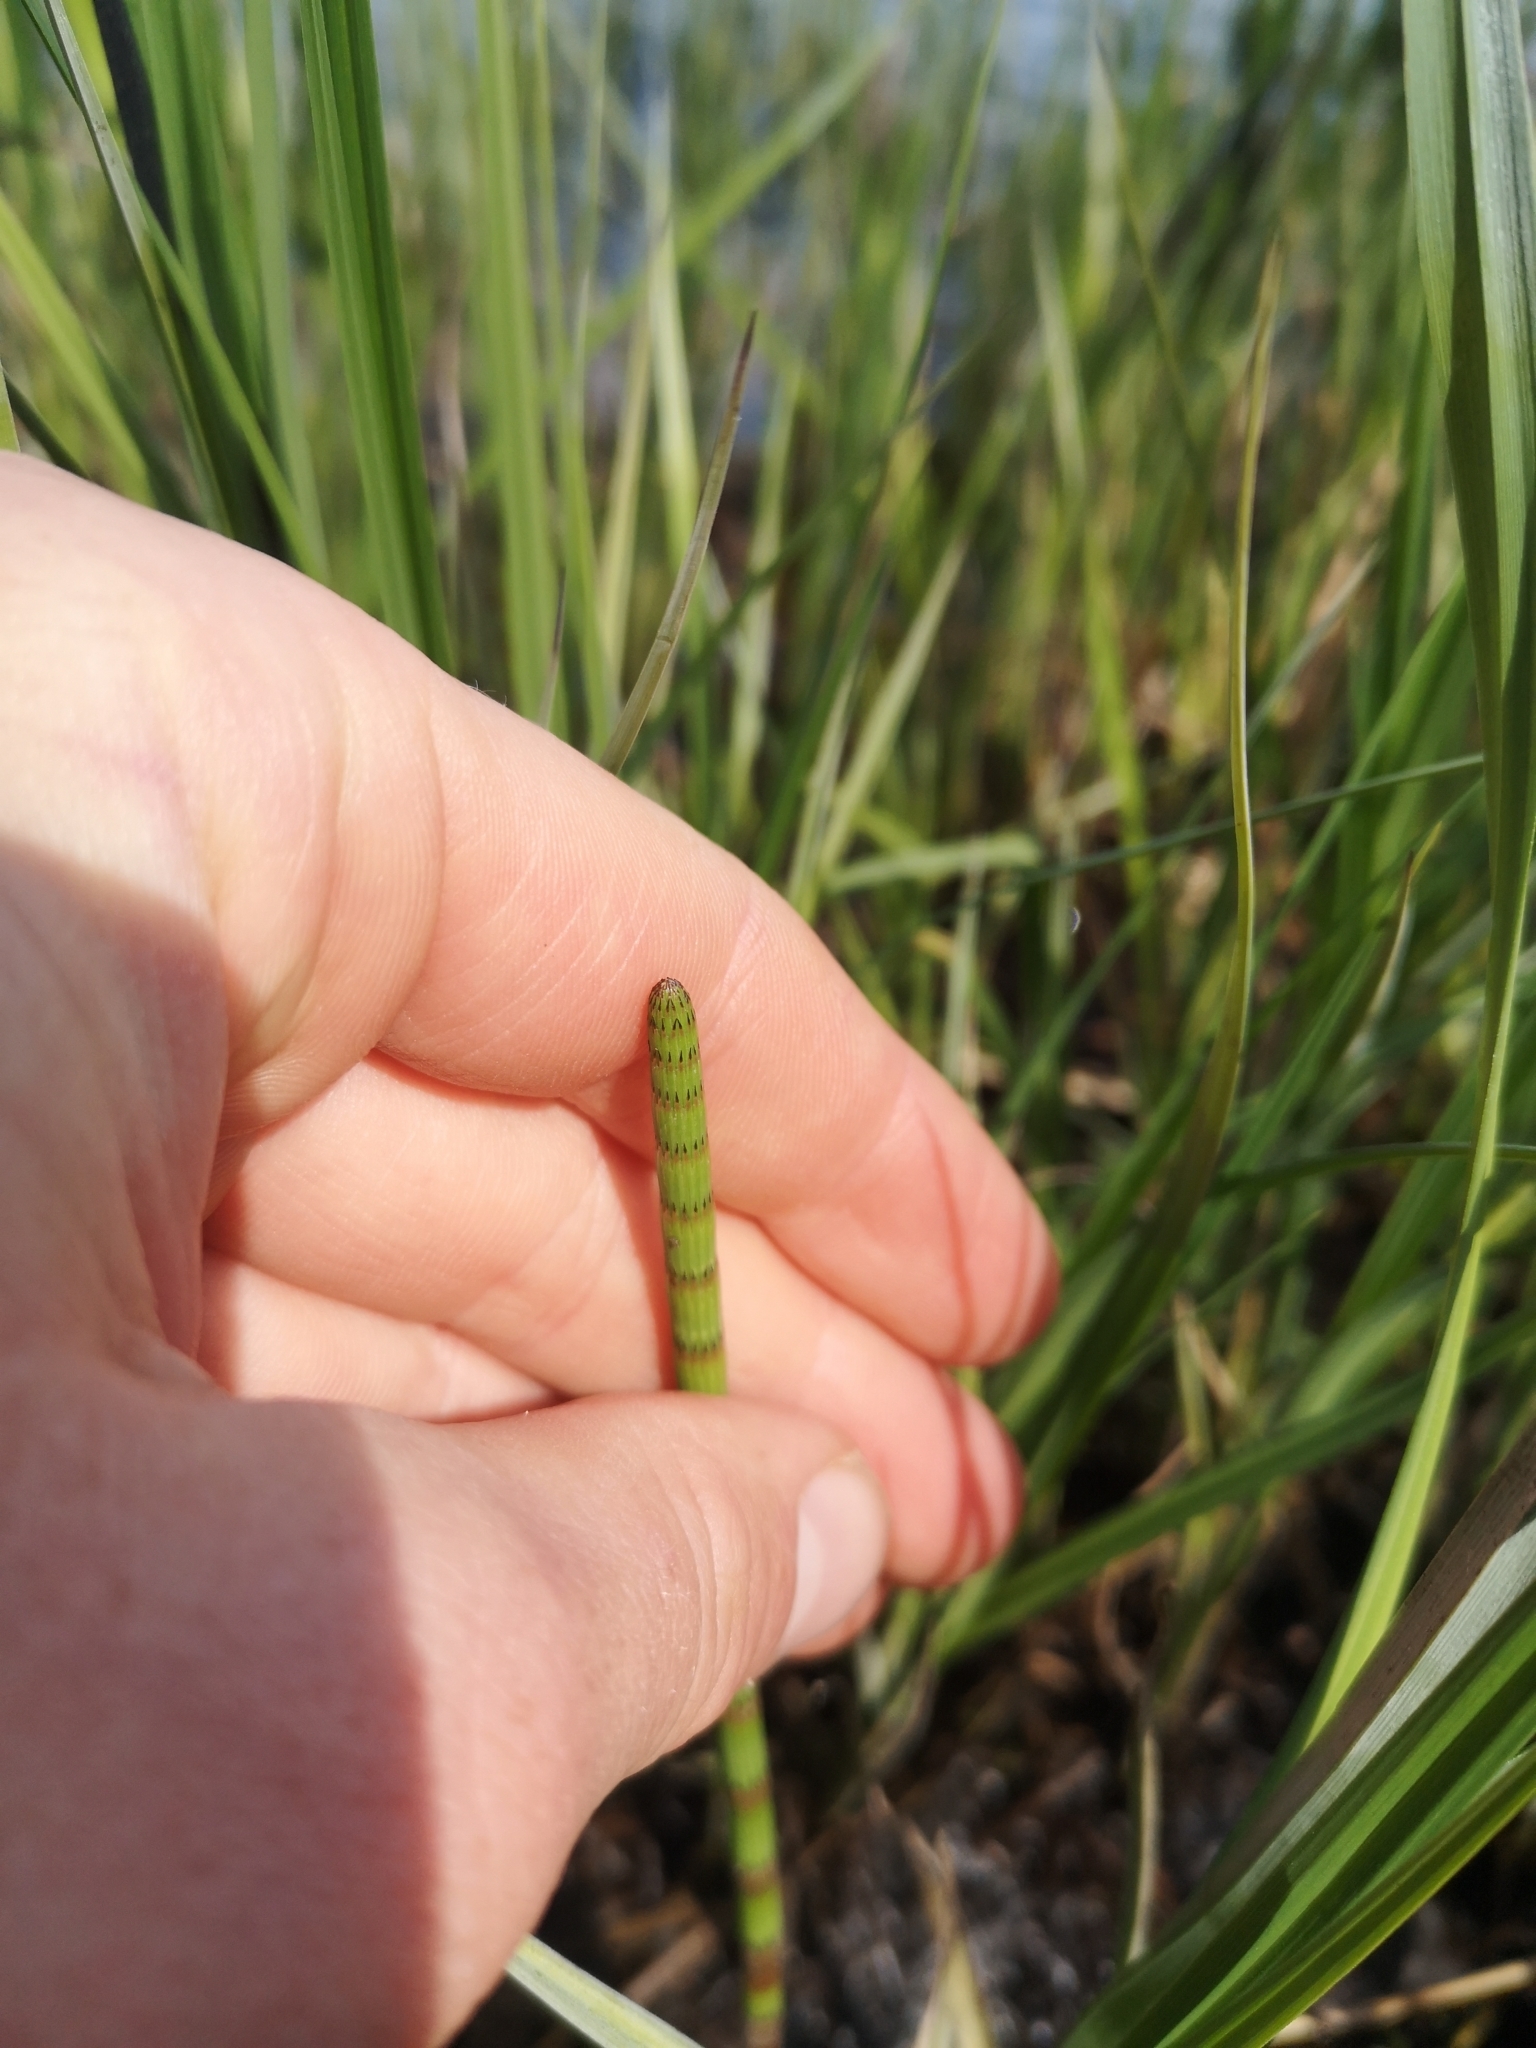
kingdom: Plantae
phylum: Tracheophyta
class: Polypodiopsida
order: Equisetales
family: Equisetaceae
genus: Equisetum
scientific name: Equisetum fluviatile
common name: Water horsetail
